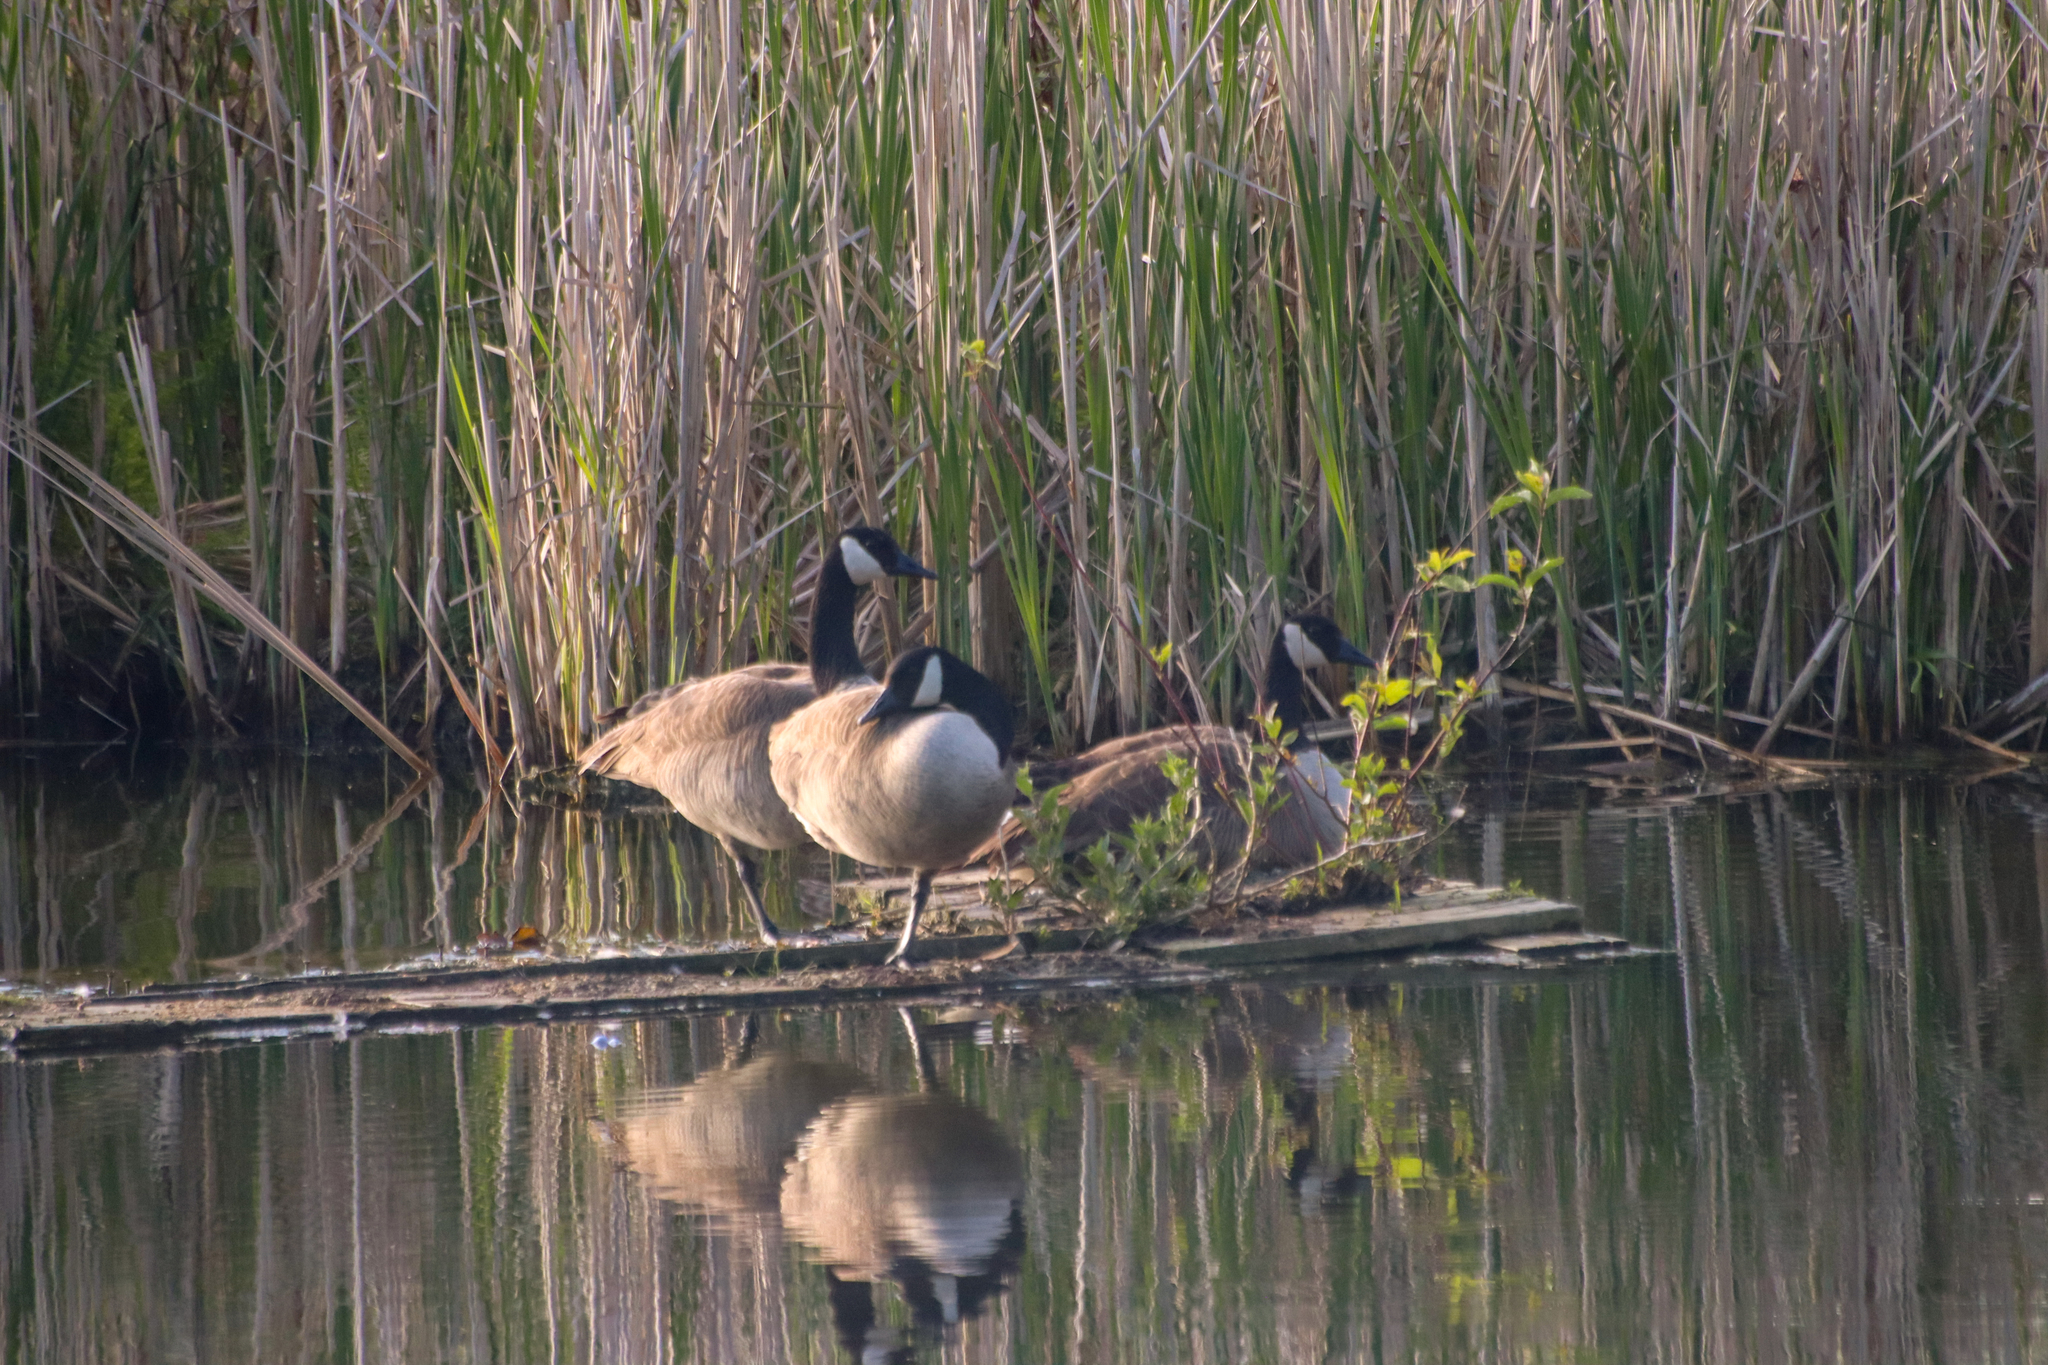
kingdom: Animalia
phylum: Chordata
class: Aves
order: Anseriformes
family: Anatidae
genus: Branta
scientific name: Branta canadensis
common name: Canada goose
